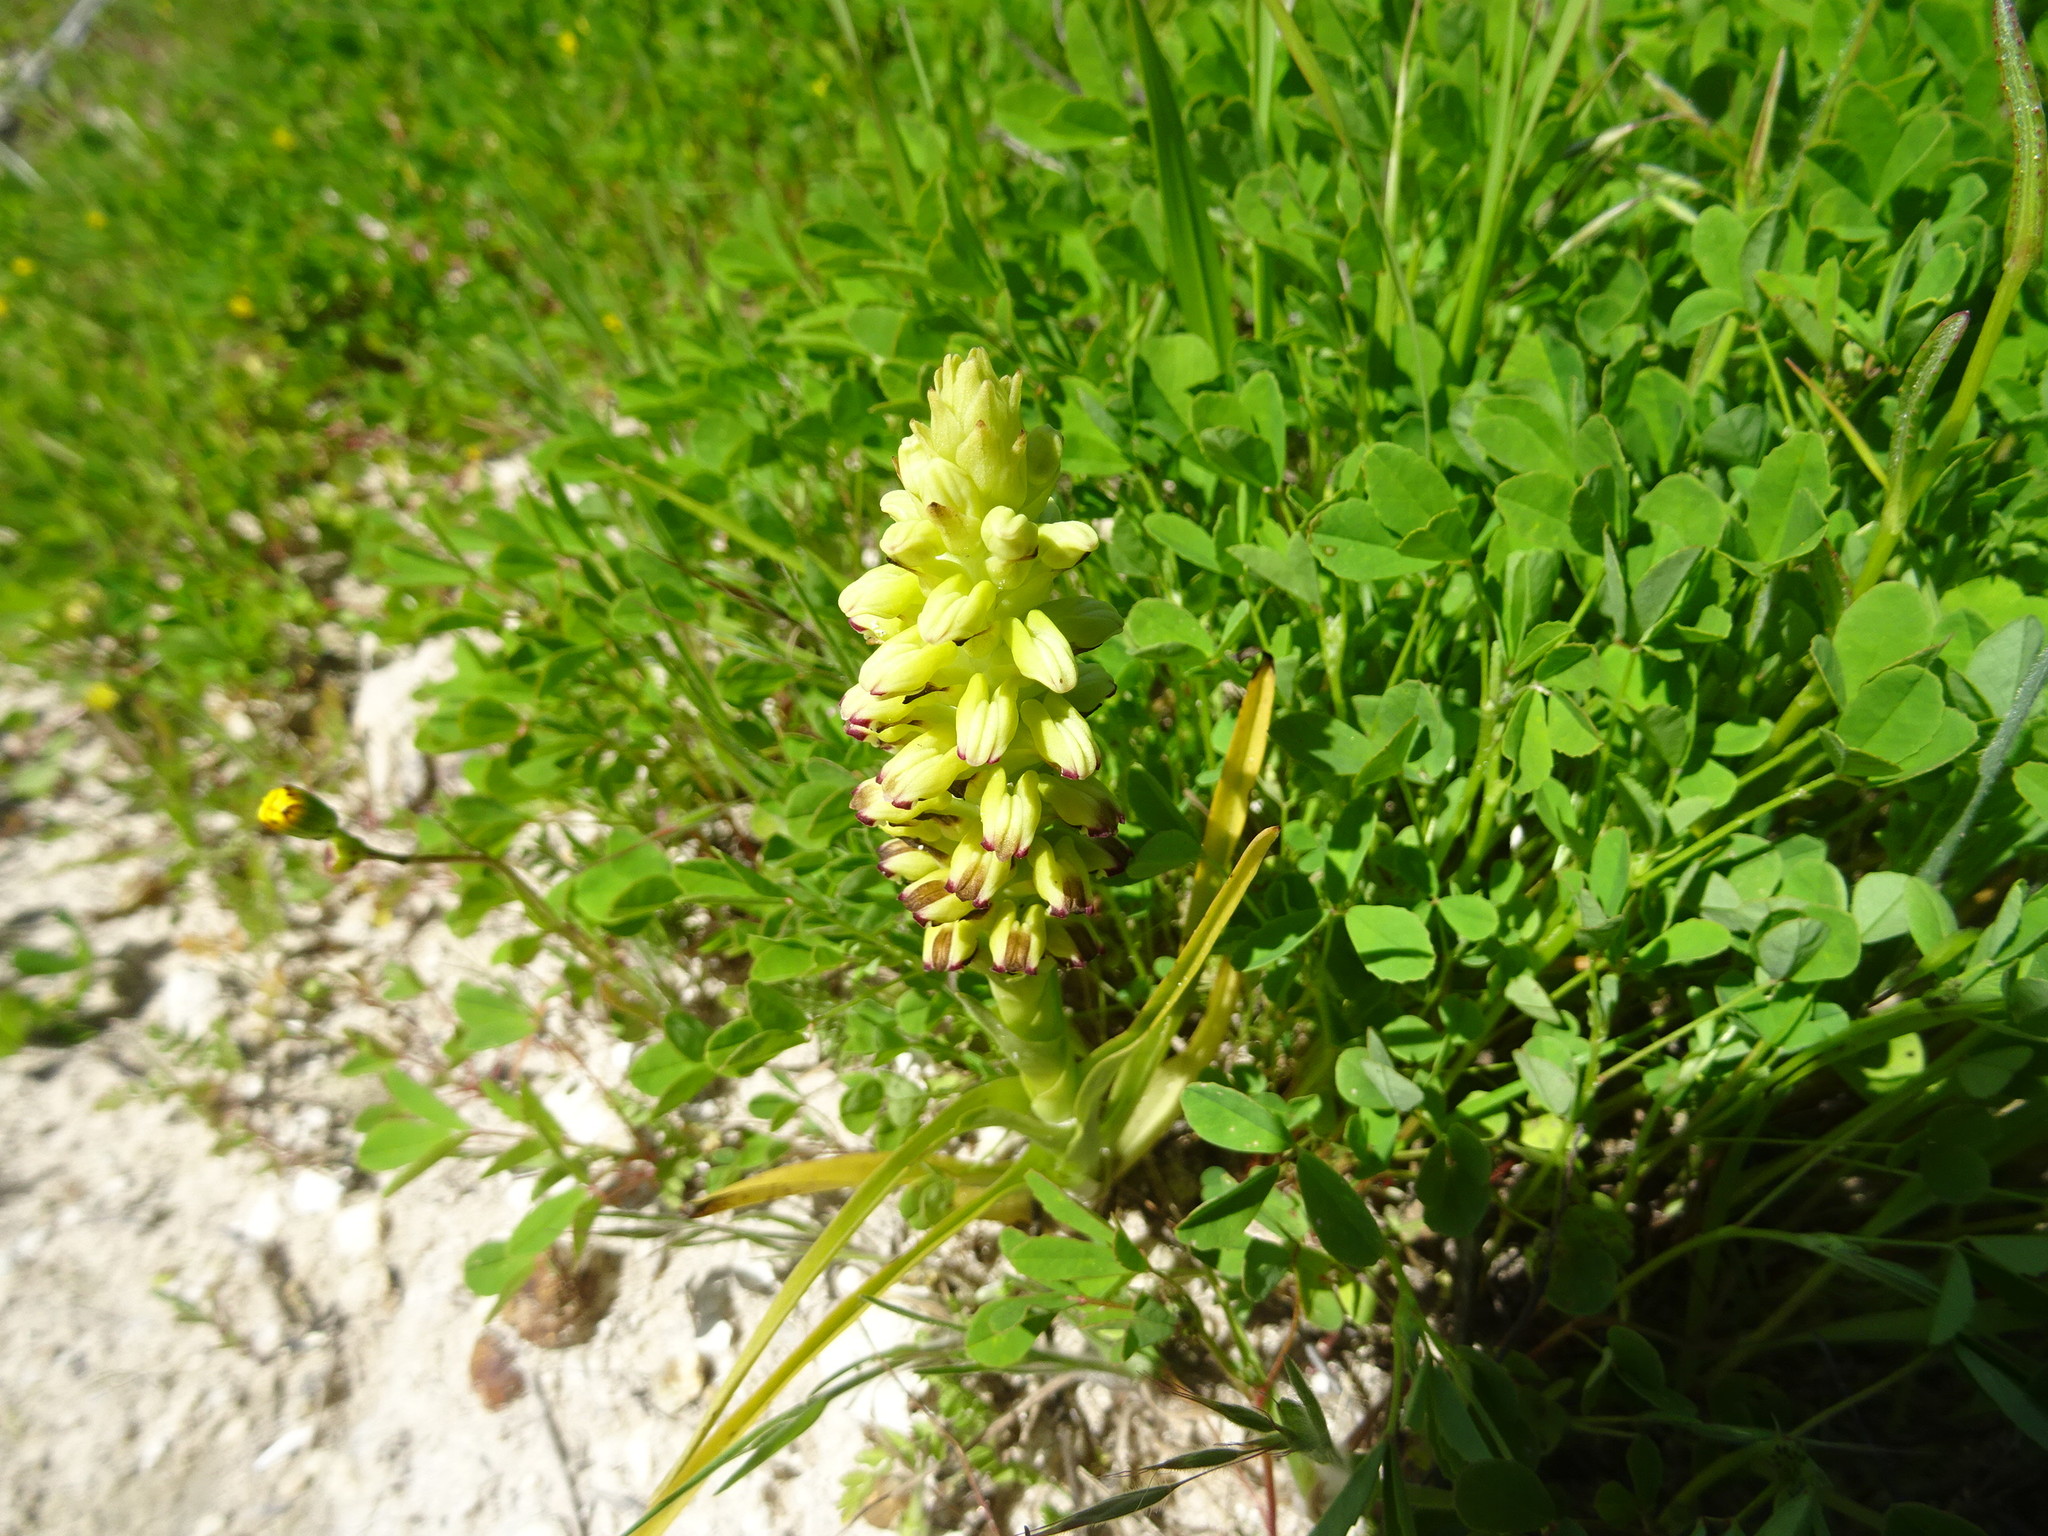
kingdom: Plantae
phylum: Tracheophyta
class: Liliopsida
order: Asparagales
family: Orchidaceae
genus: Corycium
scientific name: Corycium orobanchoides
